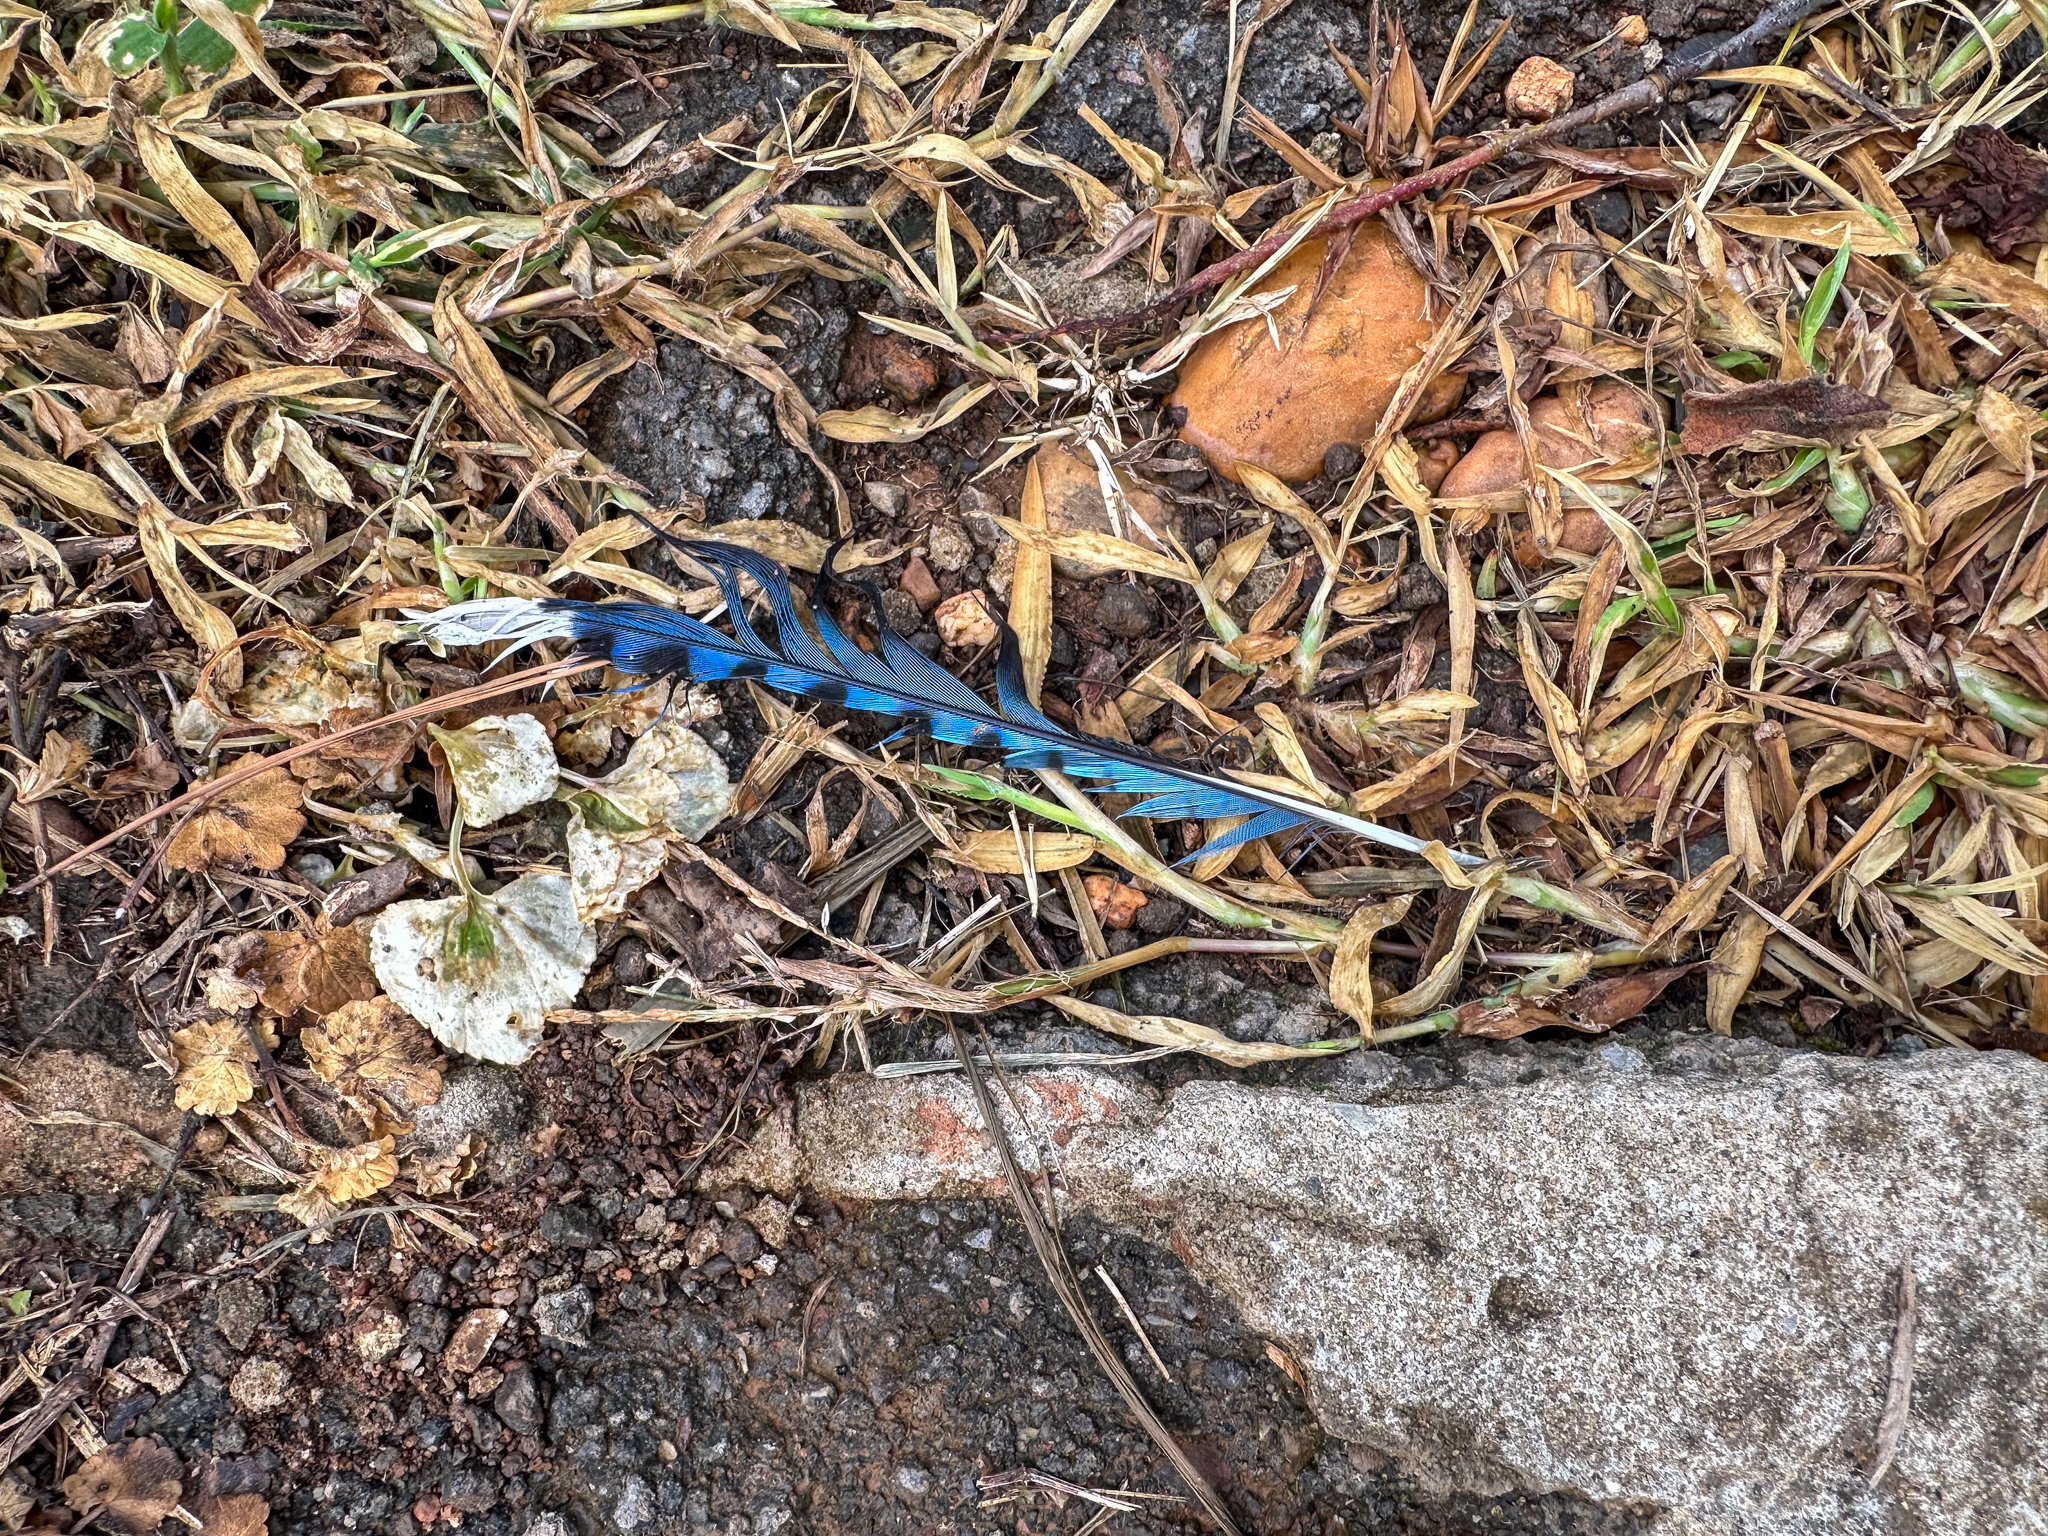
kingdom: Animalia
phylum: Chordata
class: Aves
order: Passeriformes
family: Corvidae
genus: Cyanocitta
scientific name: Cyanocitta cristata
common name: Blue jay
